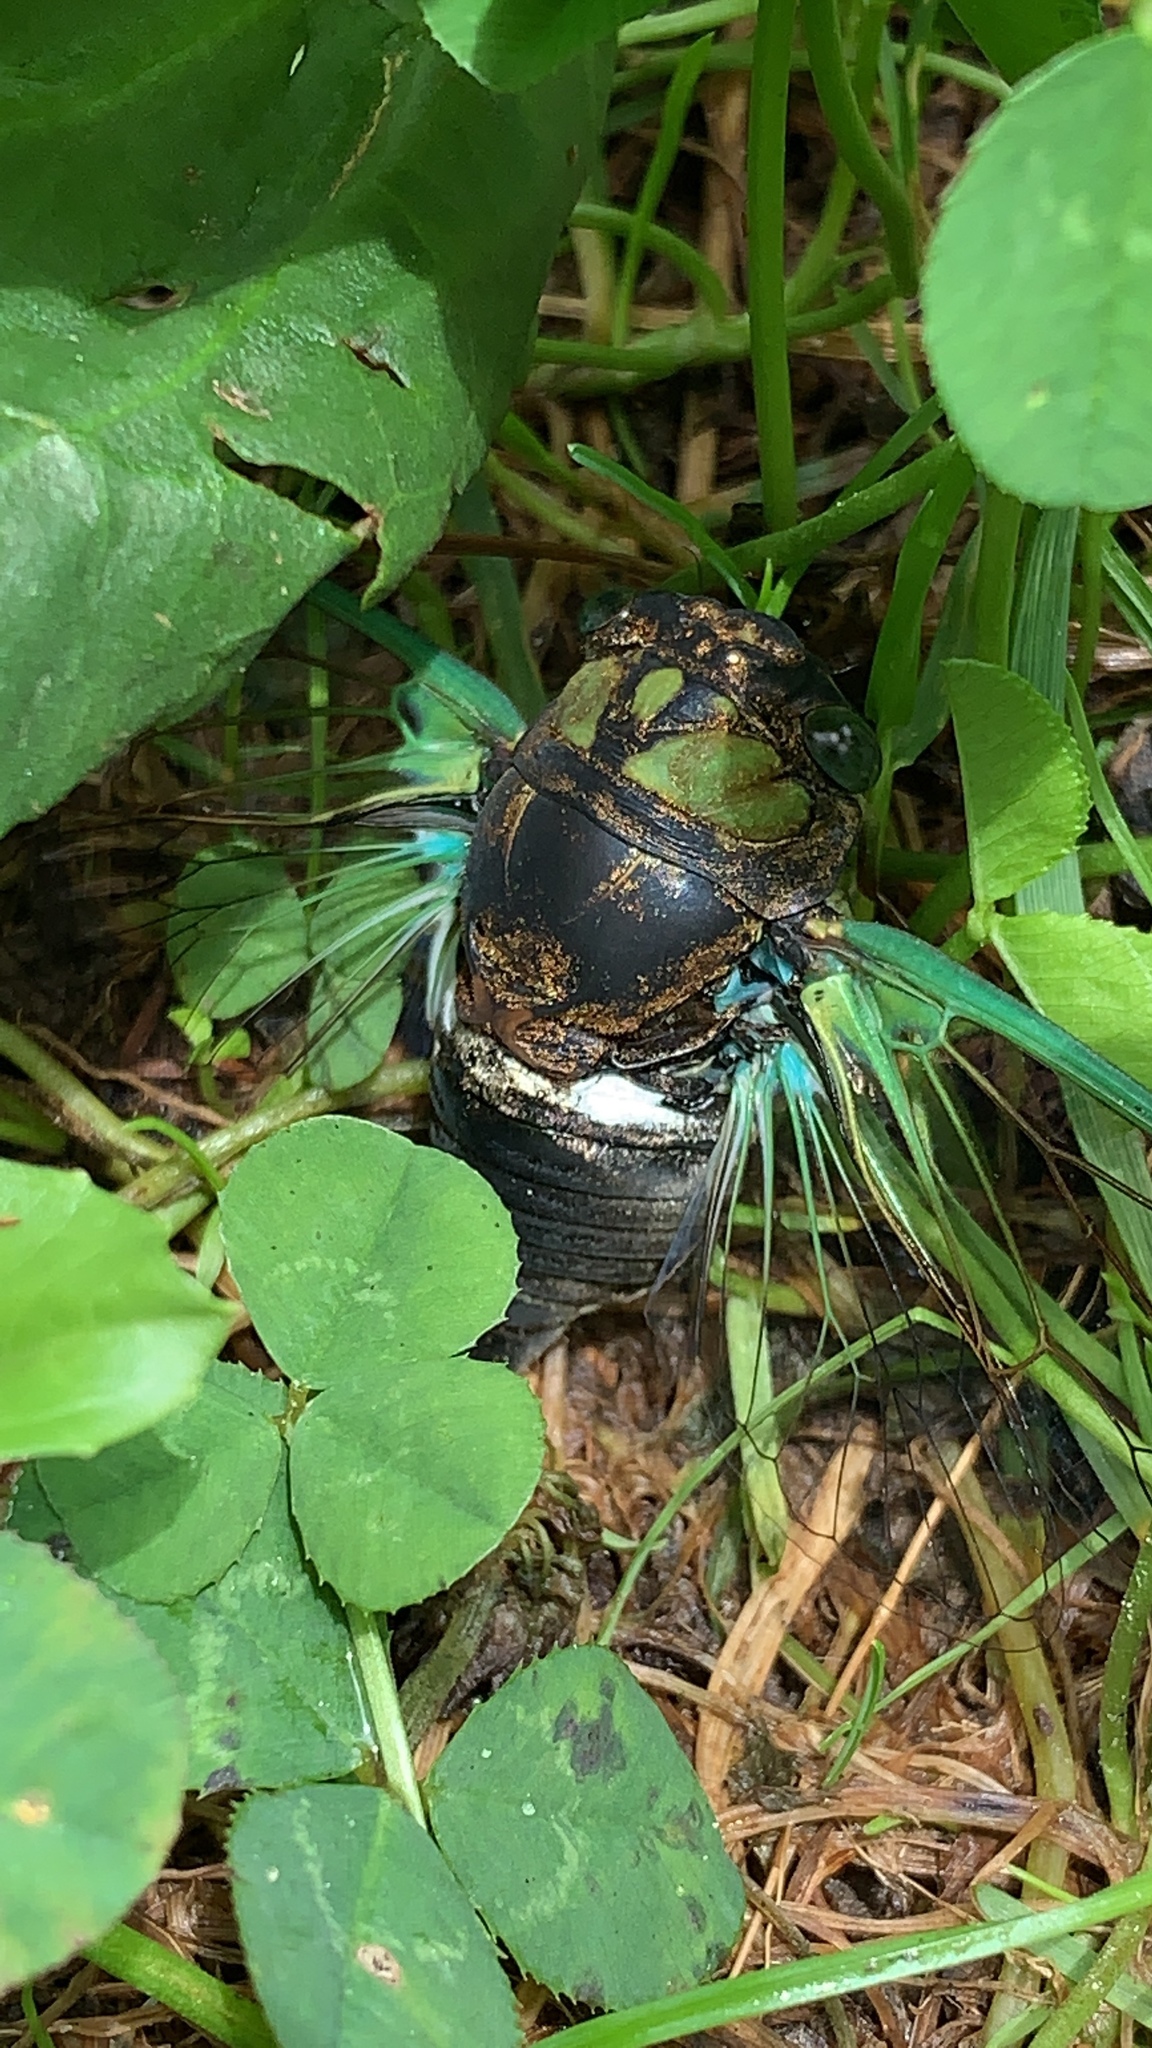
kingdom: Animalia
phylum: Arthropoda
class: Insecta
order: Hemiptera
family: Cicadidae
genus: Neotibicen
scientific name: Neotibicen tibicen
